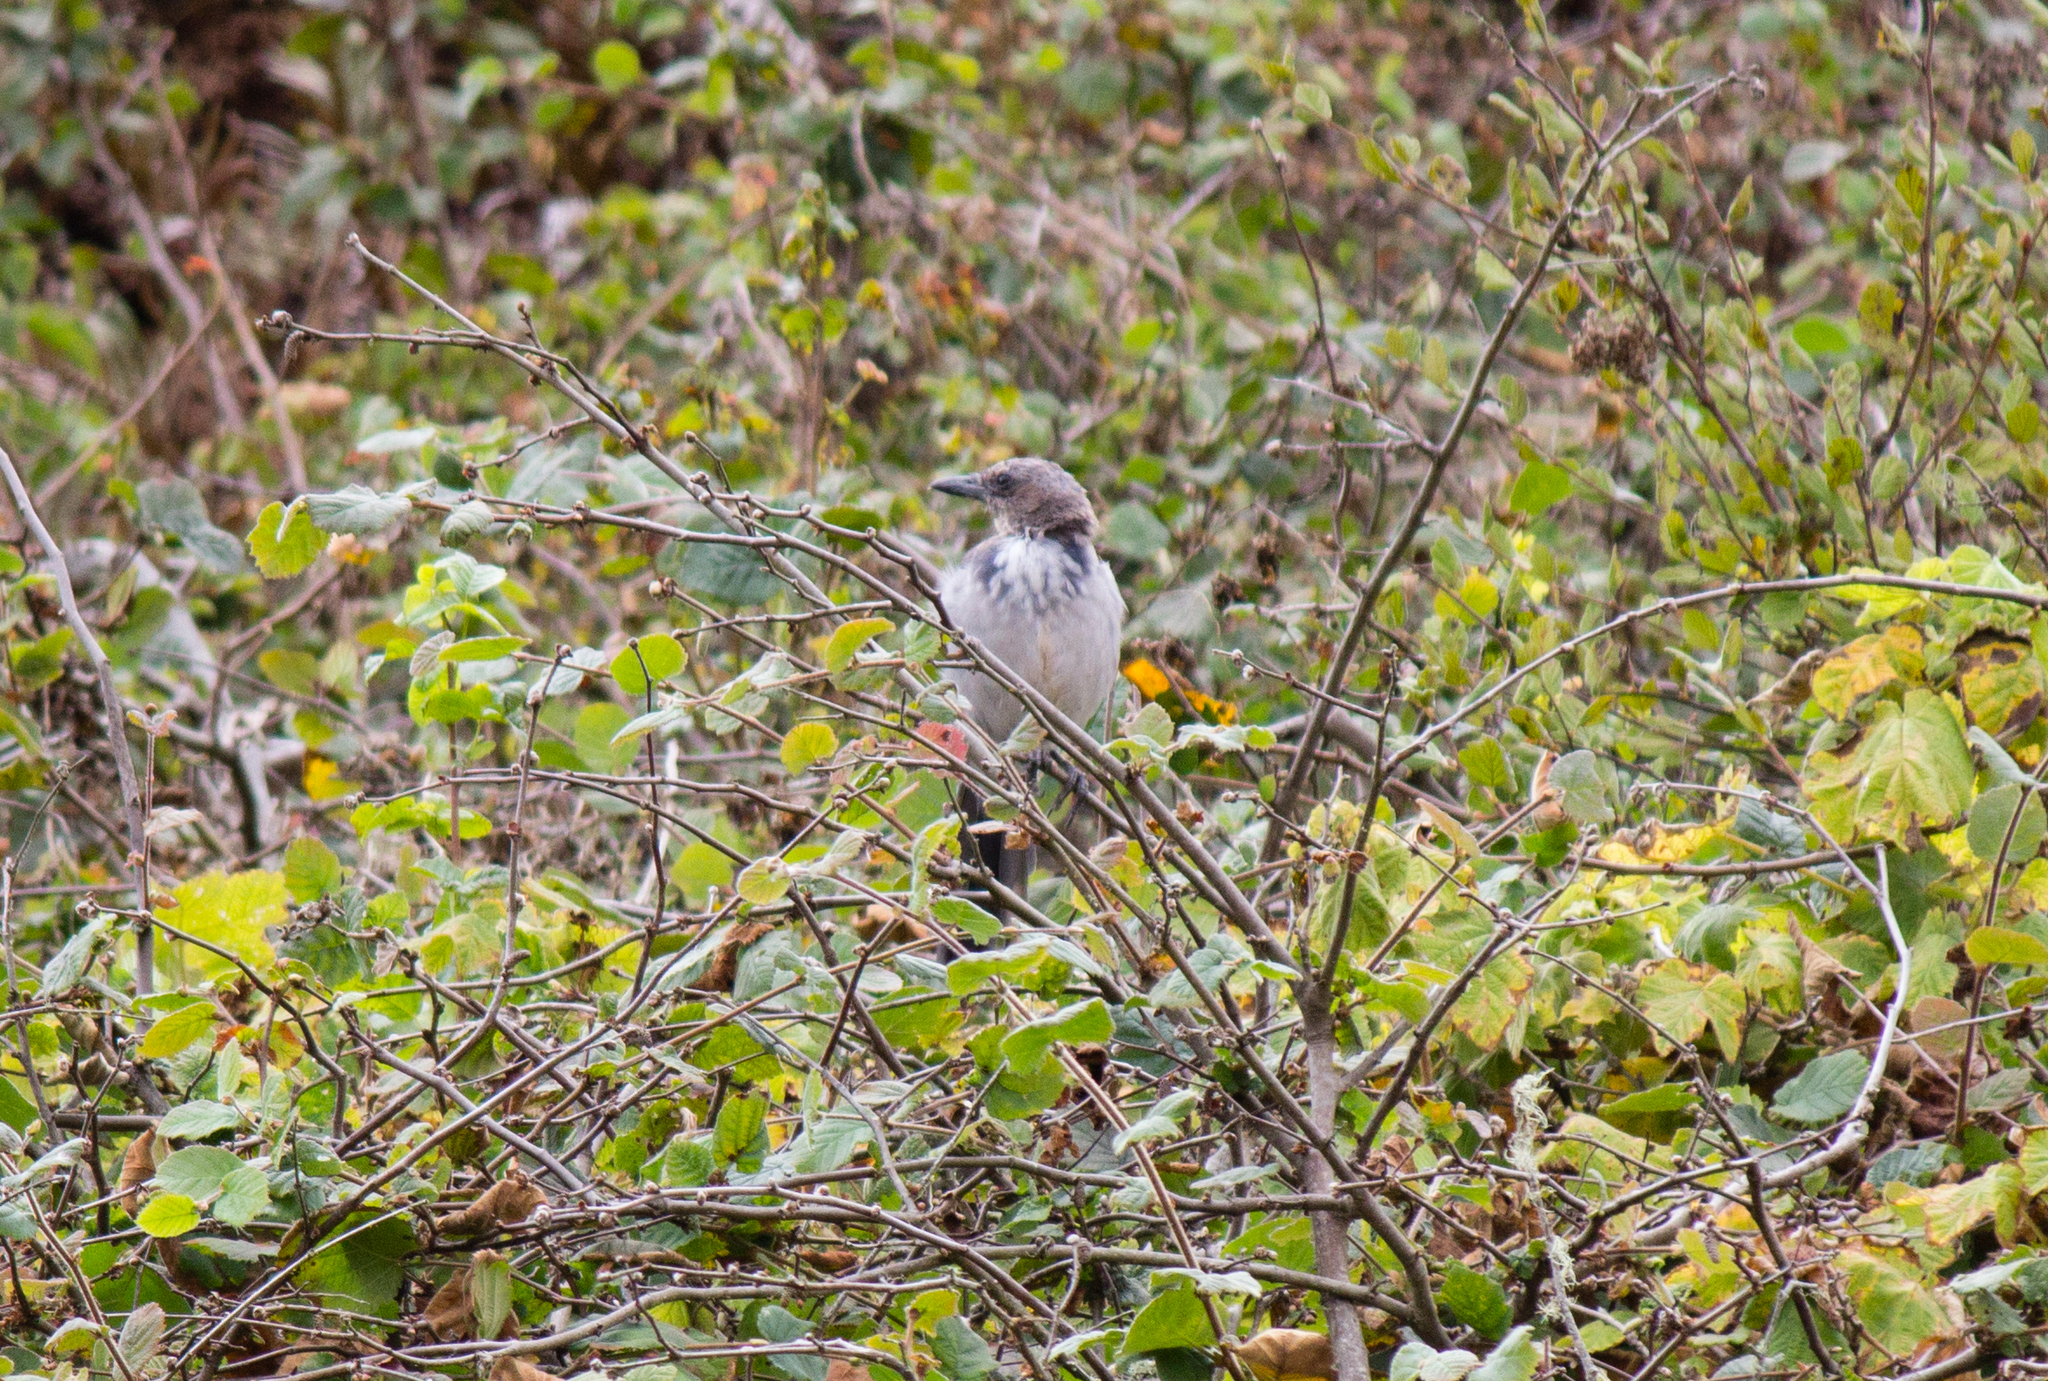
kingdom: Animalia
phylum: Chordata
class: Aves
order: Passeriformes
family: Corvidae
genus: Aphelocoma
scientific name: Aphelocoma californica
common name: California scrub-jay
